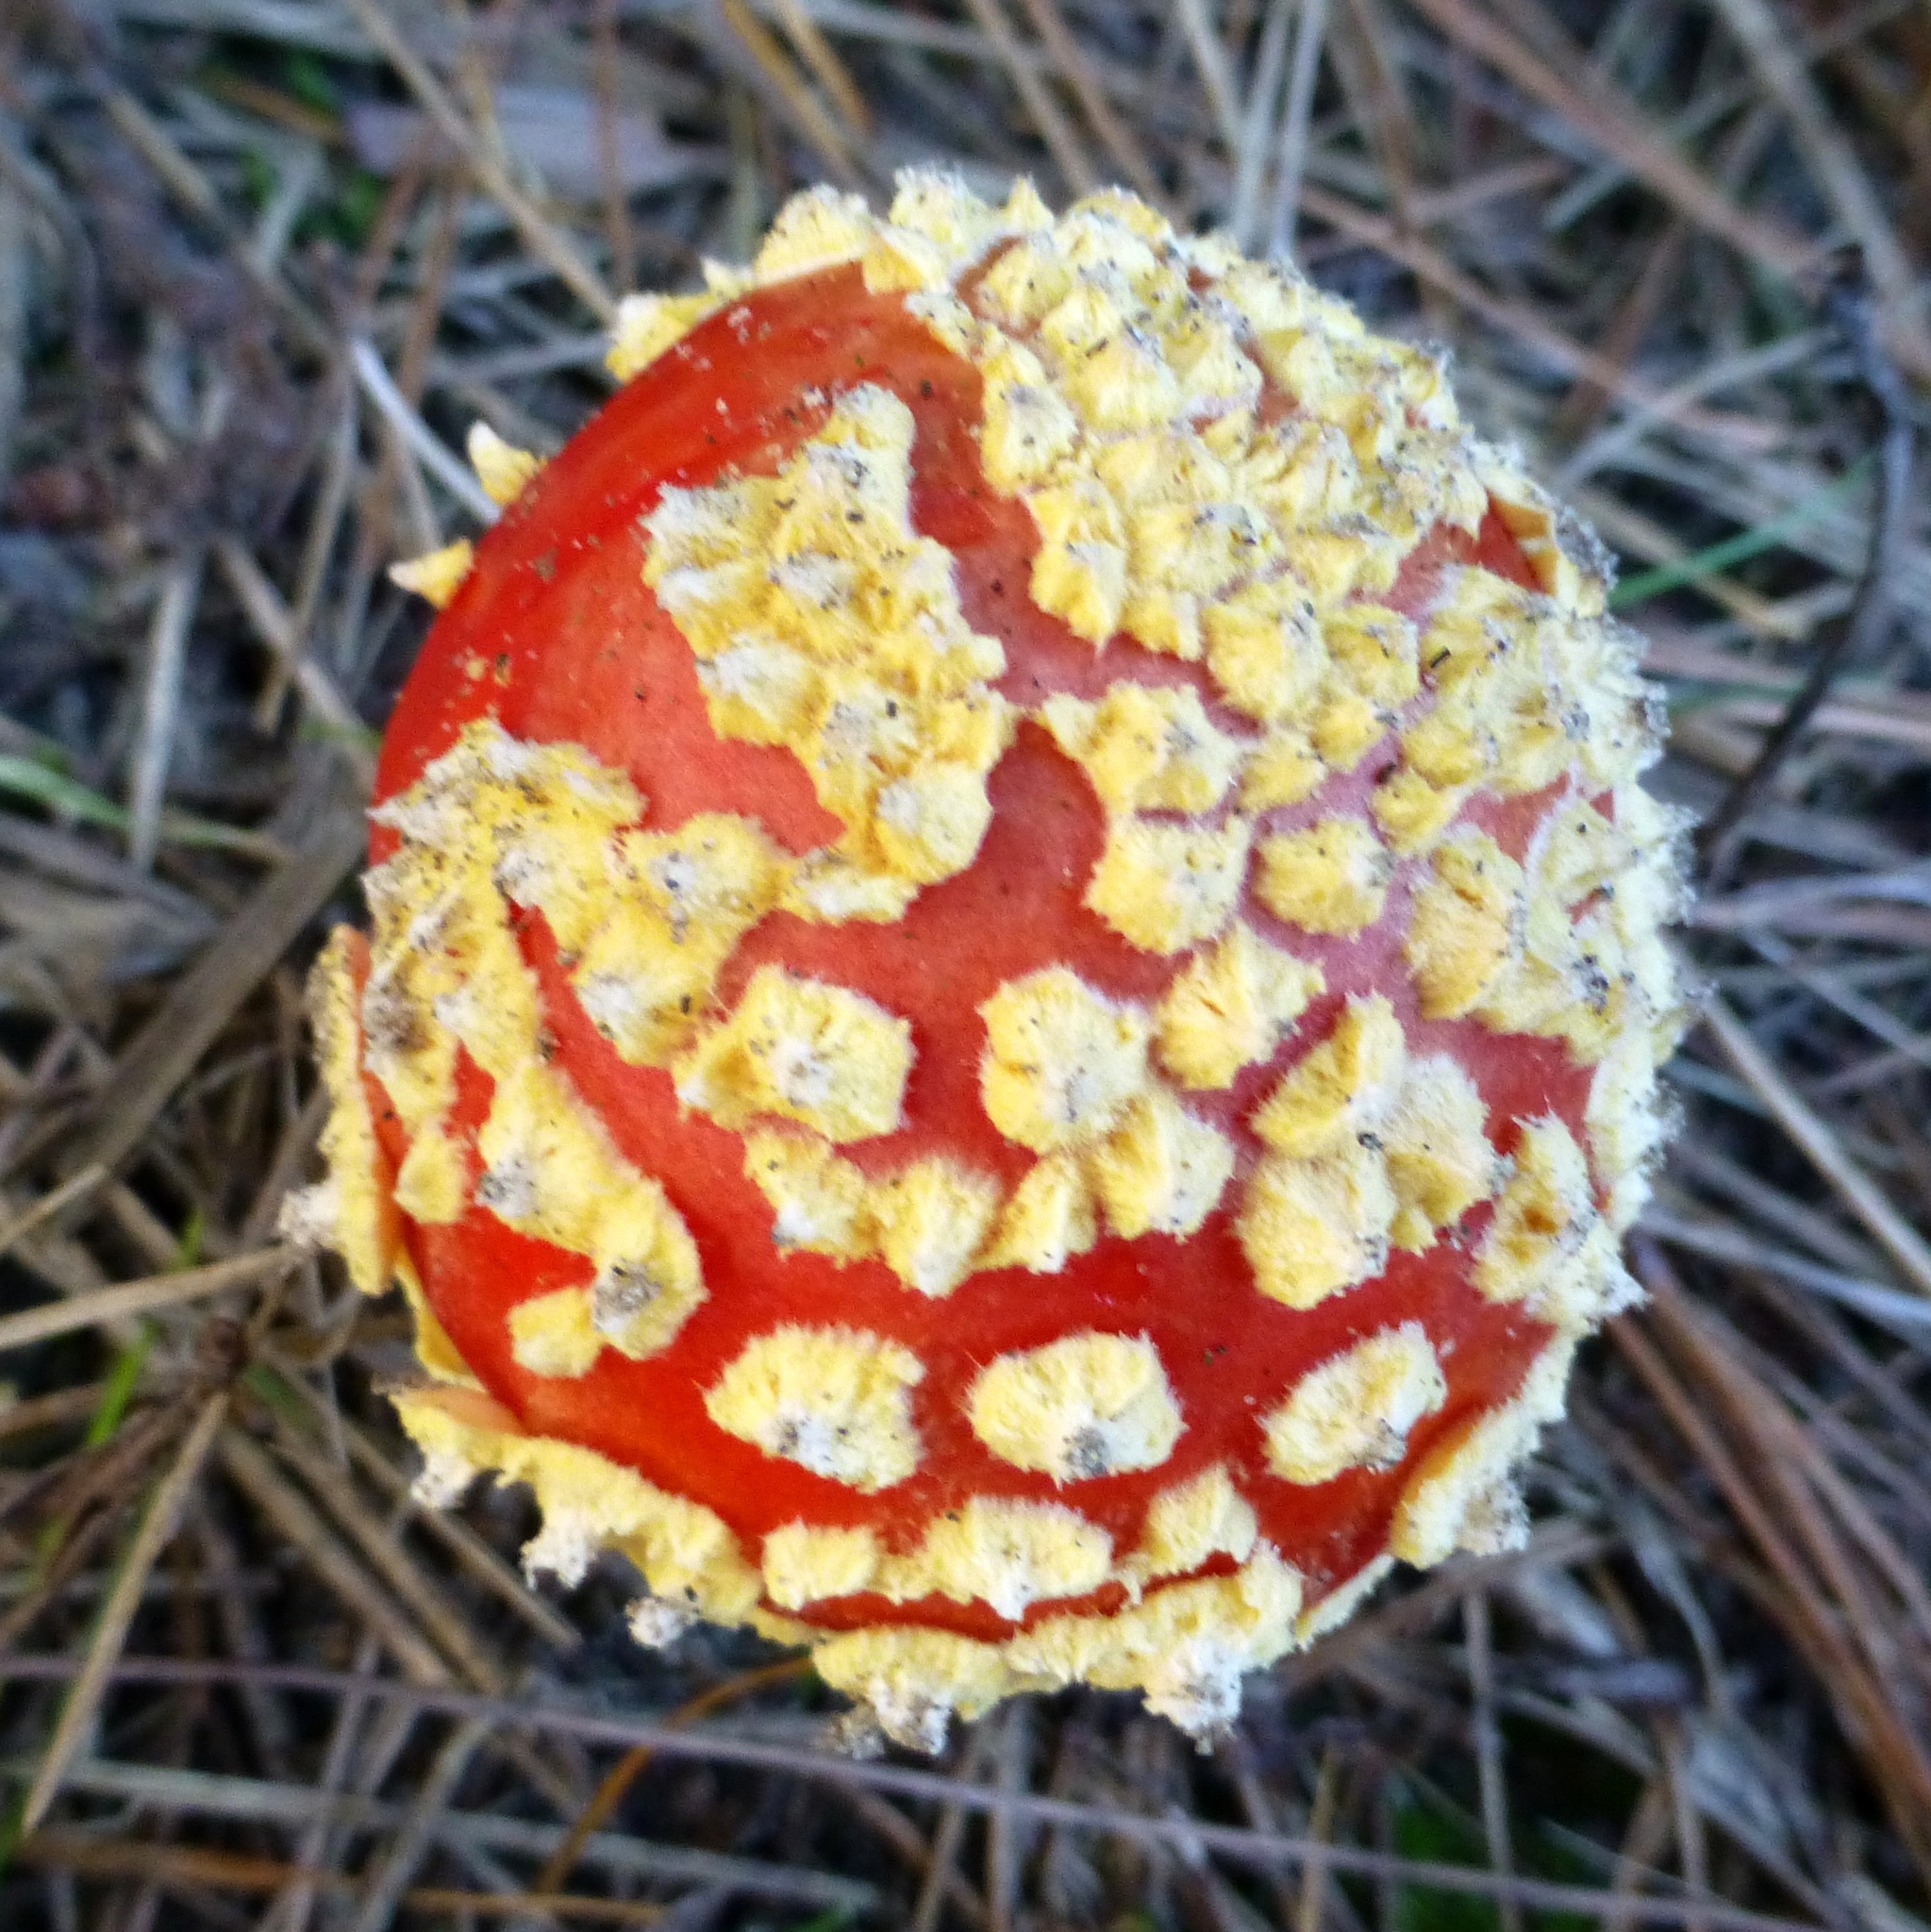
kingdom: Fungi
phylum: Basidiomycota
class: Agaricomycetes
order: Agaricales
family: Amanitaceae
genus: Amanita
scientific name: Amanita muscaria
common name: Fly agaric
